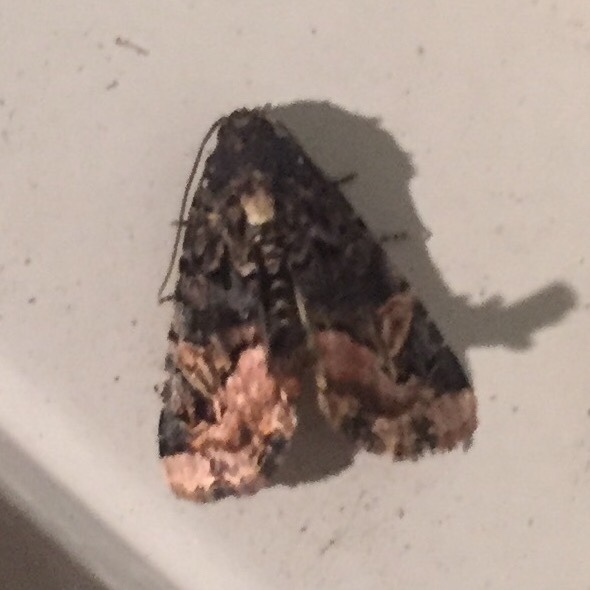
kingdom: Animalia
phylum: Arthropoda
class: Insecta
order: Lepidoptera
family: Noctuidae
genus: Homophoberia
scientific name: Homophoberia apicosa
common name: Black wedge-spot
